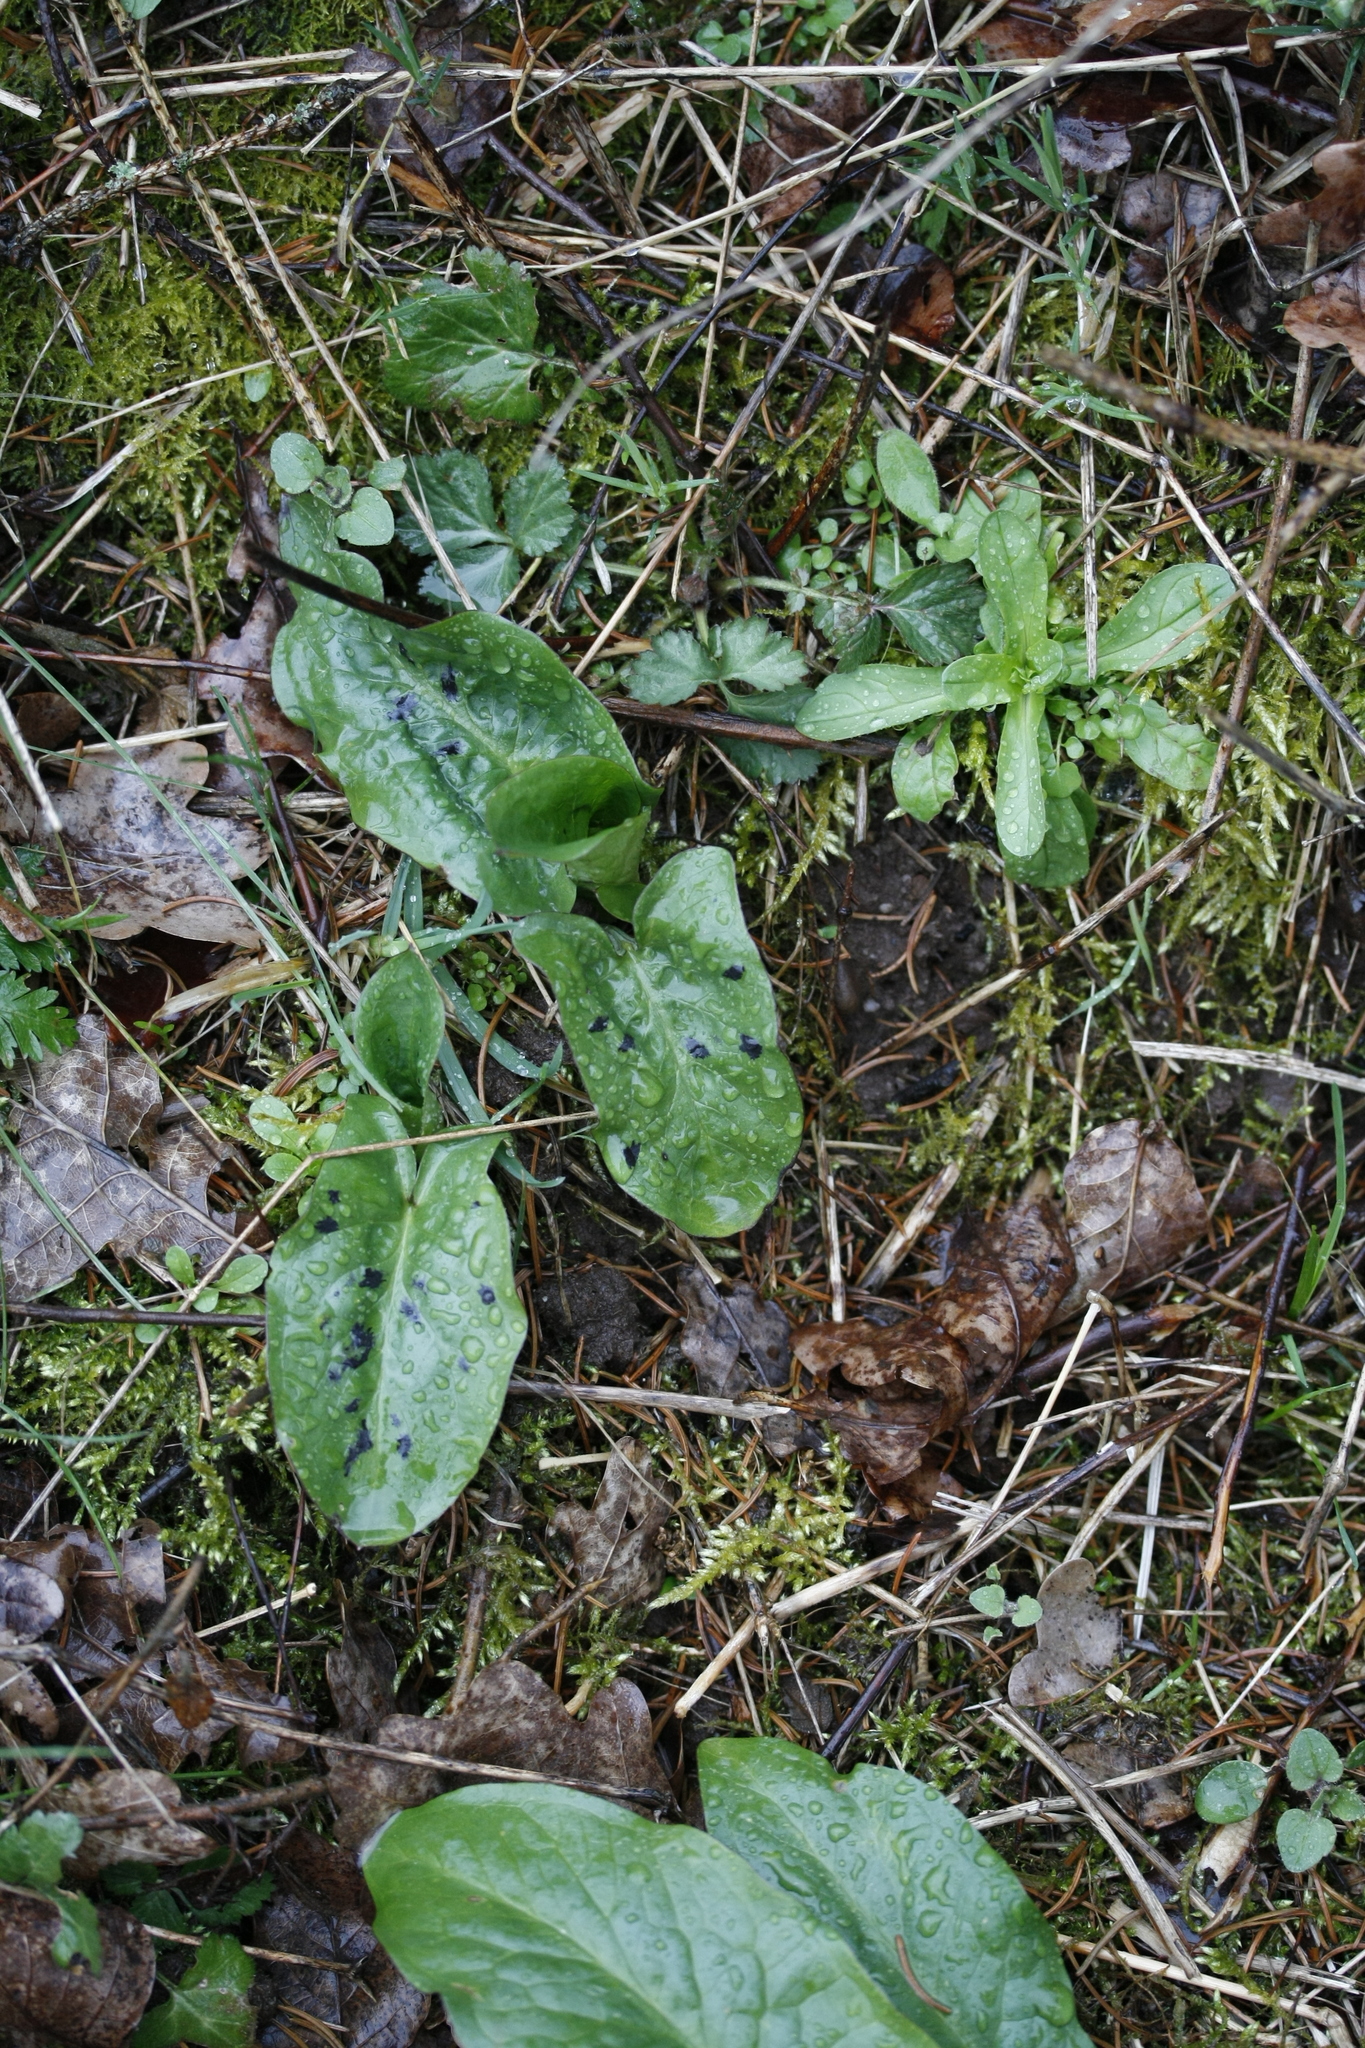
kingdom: Plantae
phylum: Tracheophyta
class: Liliopsida
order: Alismatales
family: Araceae
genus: Arum
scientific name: Arum maculatum
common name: Lords-and-ladies
